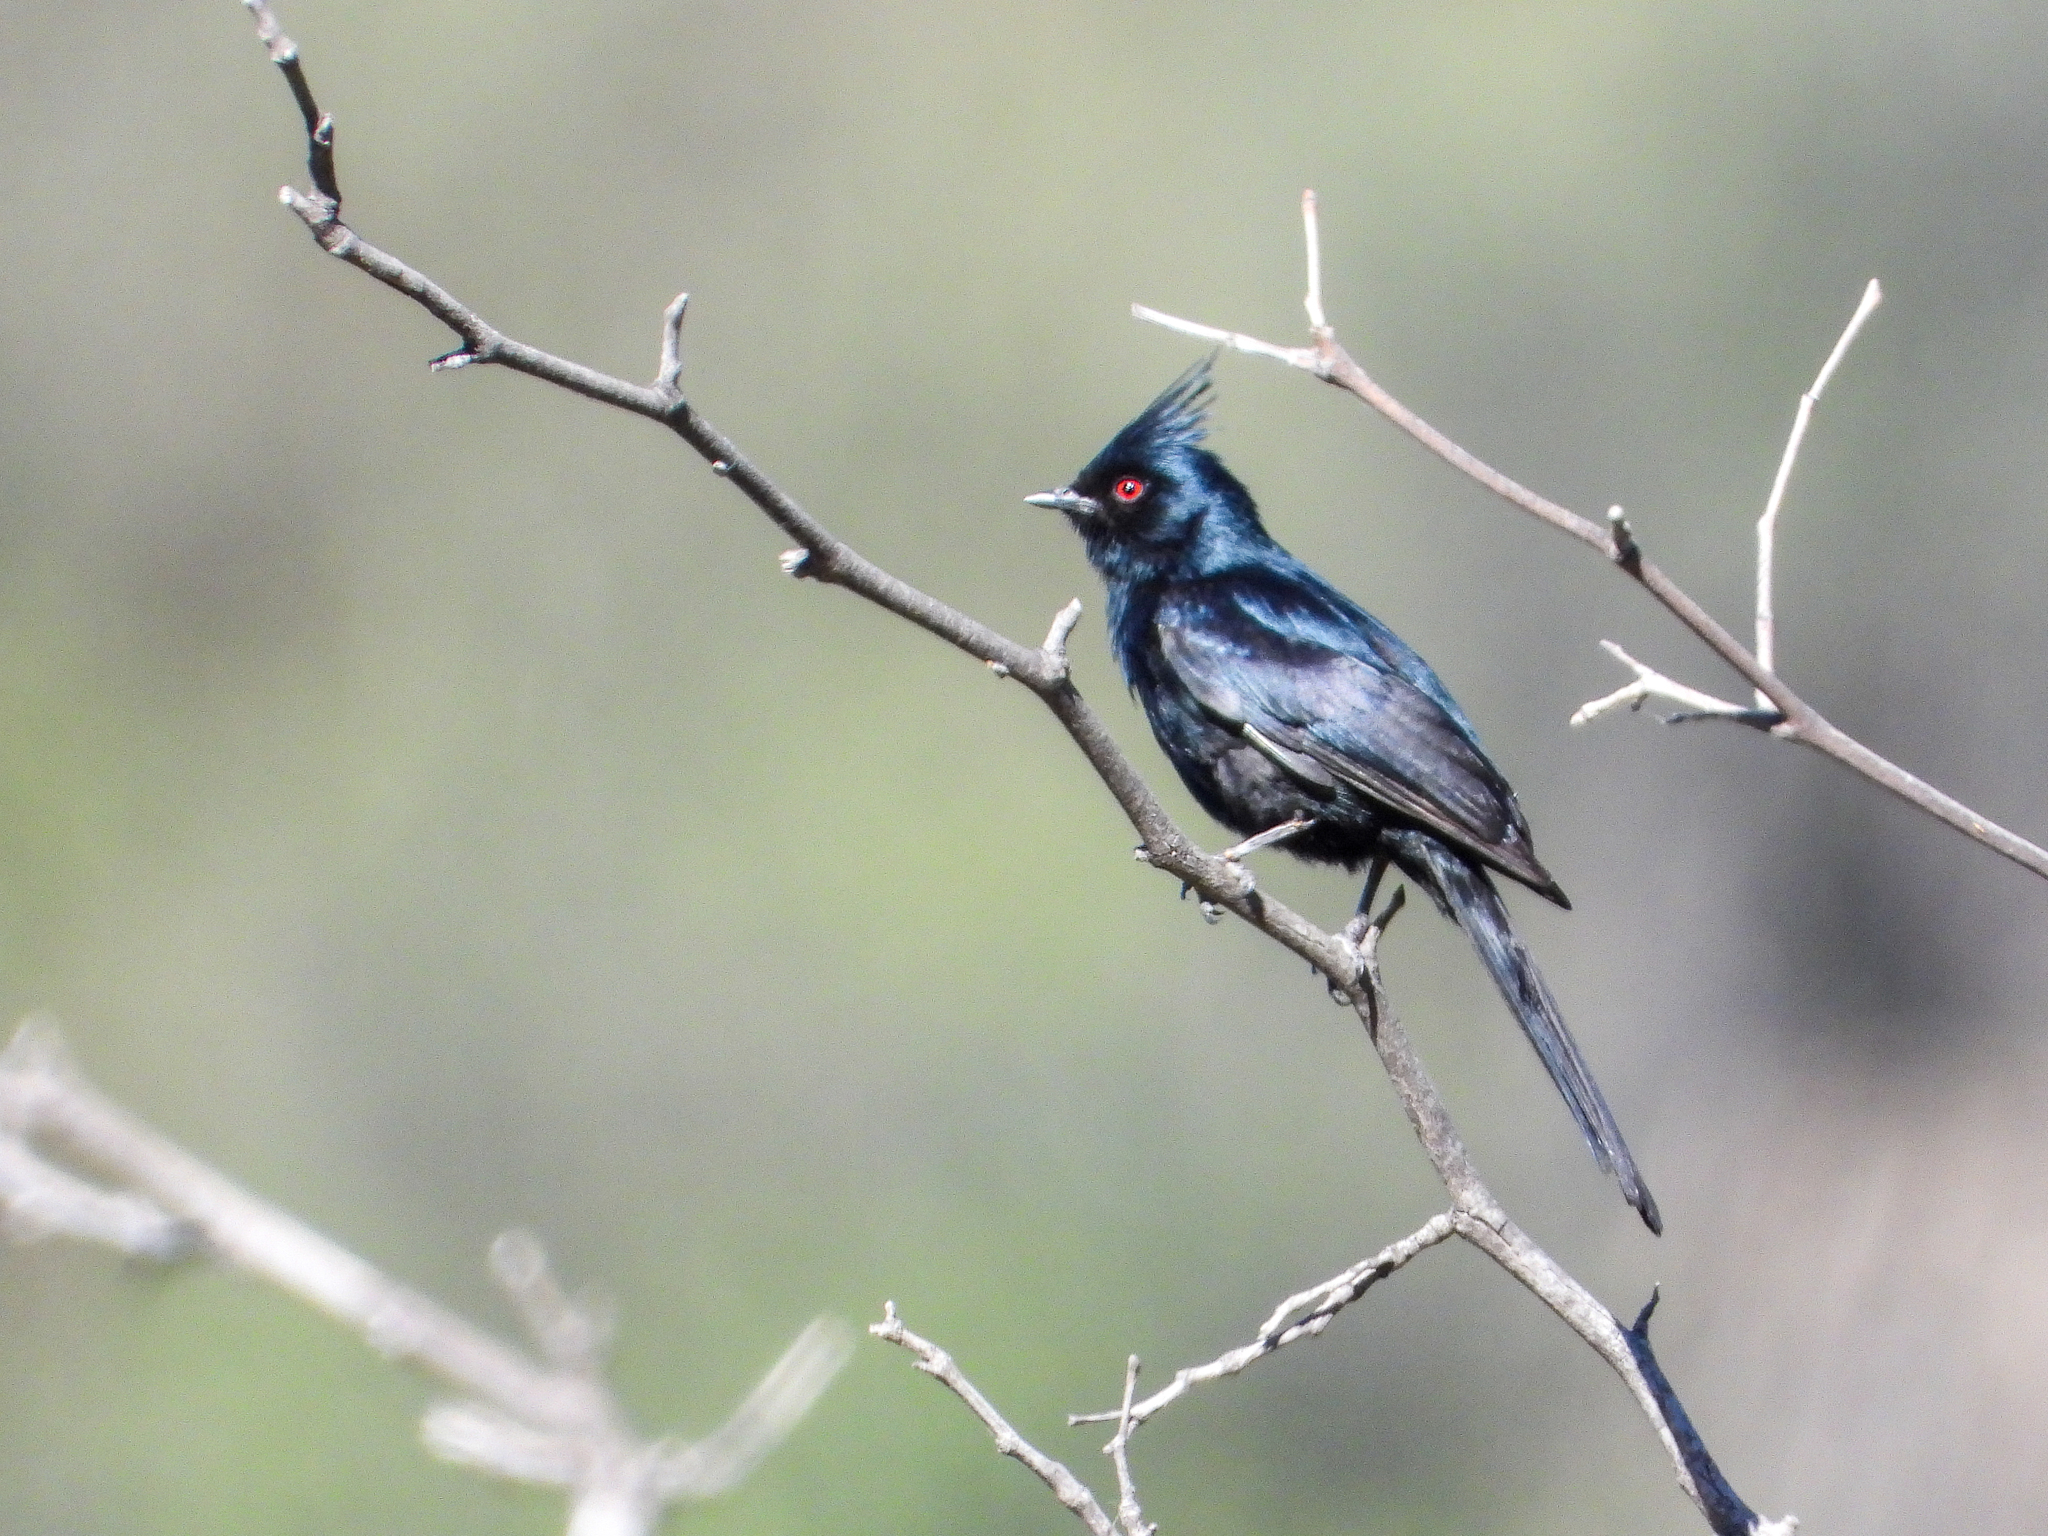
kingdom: Animalia
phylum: Chordata
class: Aves
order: Passeriformes
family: Ptilogonatidae
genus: Phainopepla
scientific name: Phainopepla nitens
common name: Phainopepla
